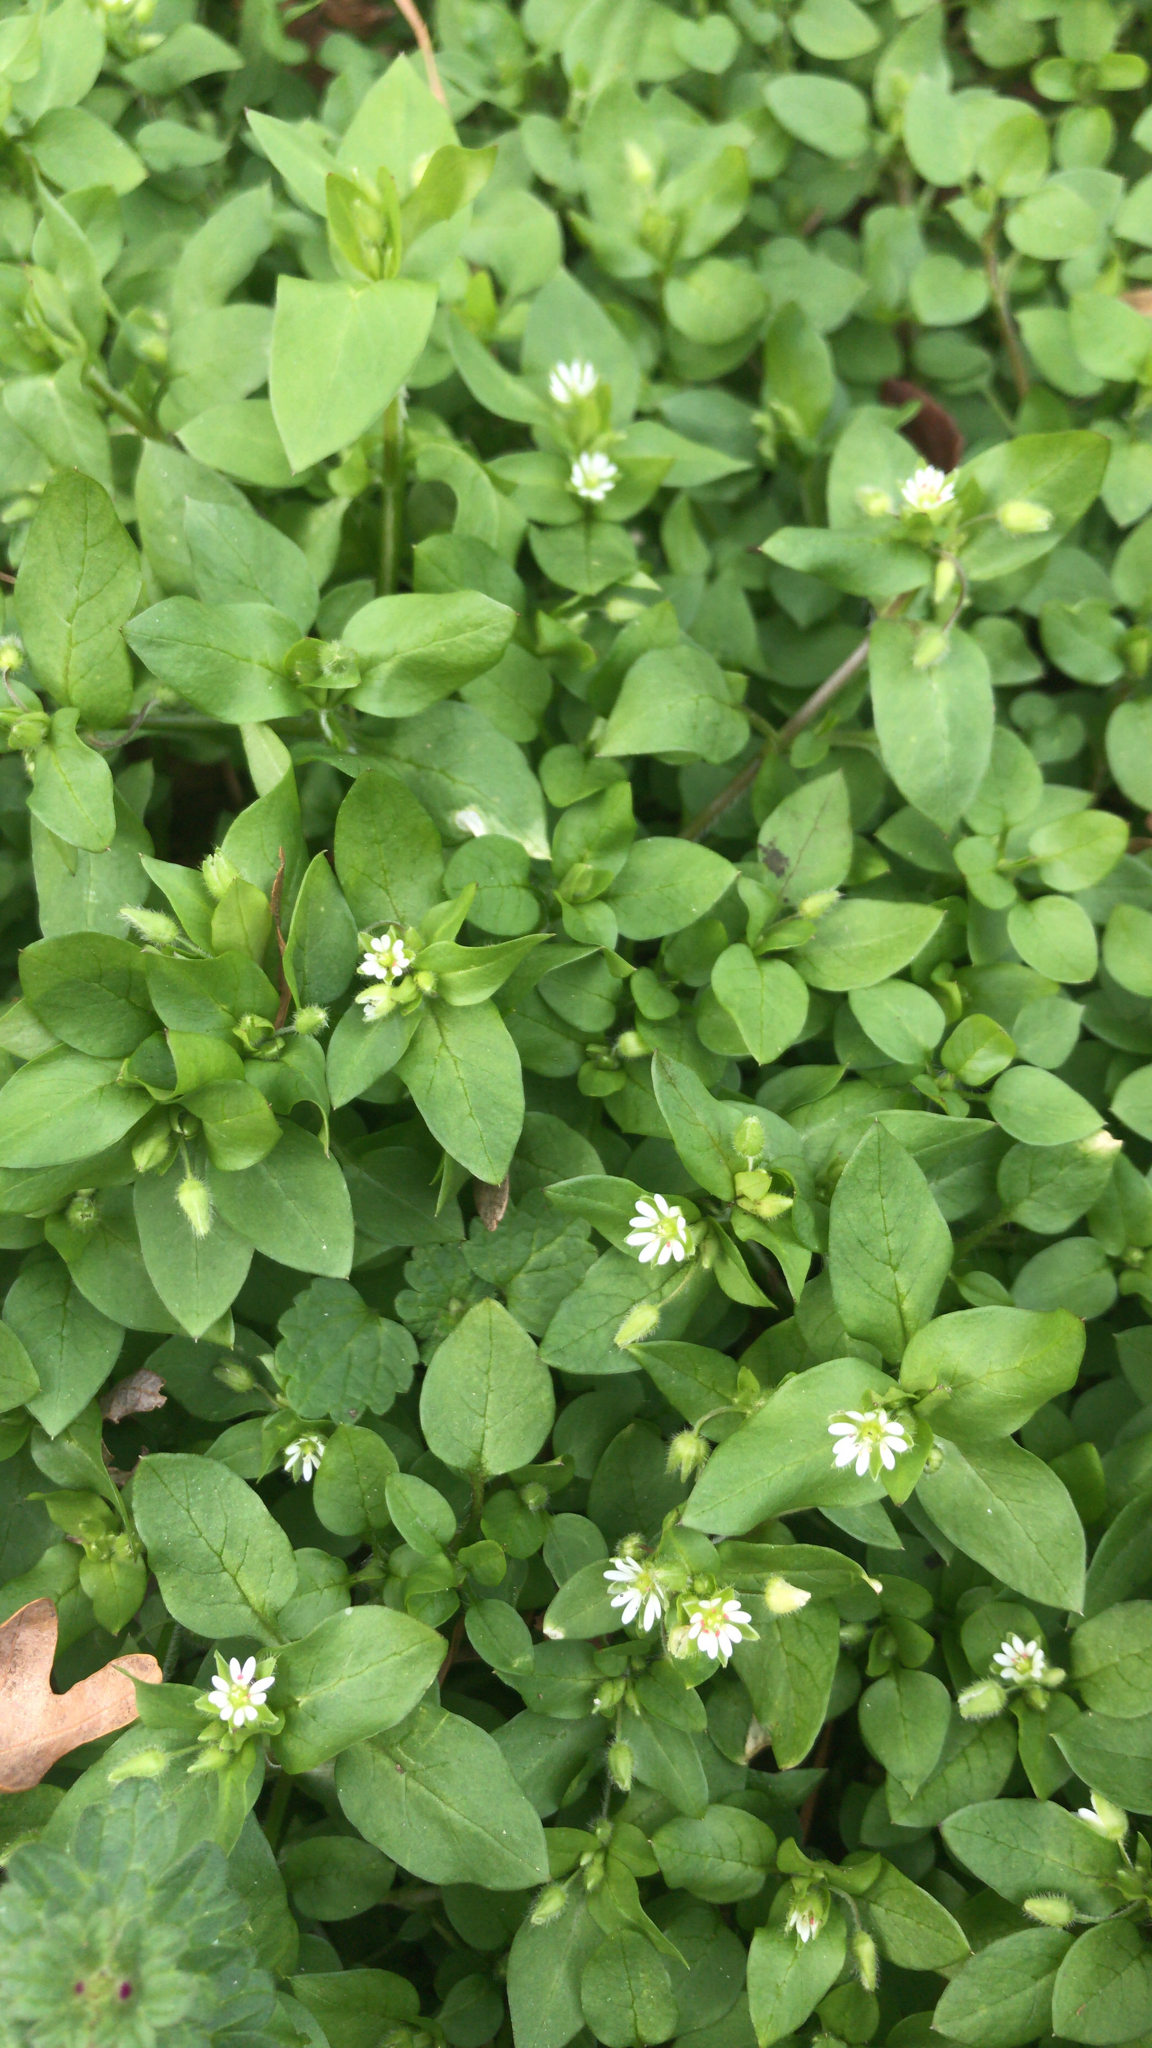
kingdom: Plantae
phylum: Tracheophyta
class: Magnoliopsida
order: Caryophyllales
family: Caryophyllaceae
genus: Stellaria
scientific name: Stellaria media
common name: Common chickweed
